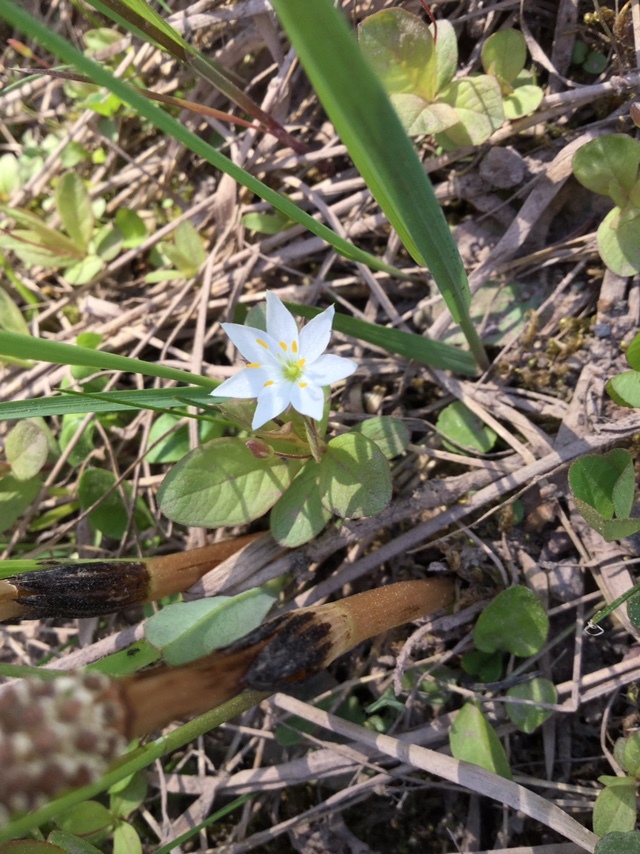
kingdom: Plantae
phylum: Tracheophyta
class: Magnoliopsida
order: Ericales
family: Primulaceae
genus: Lysimachia
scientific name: Lysimachia europaea
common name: Arctic starflower
